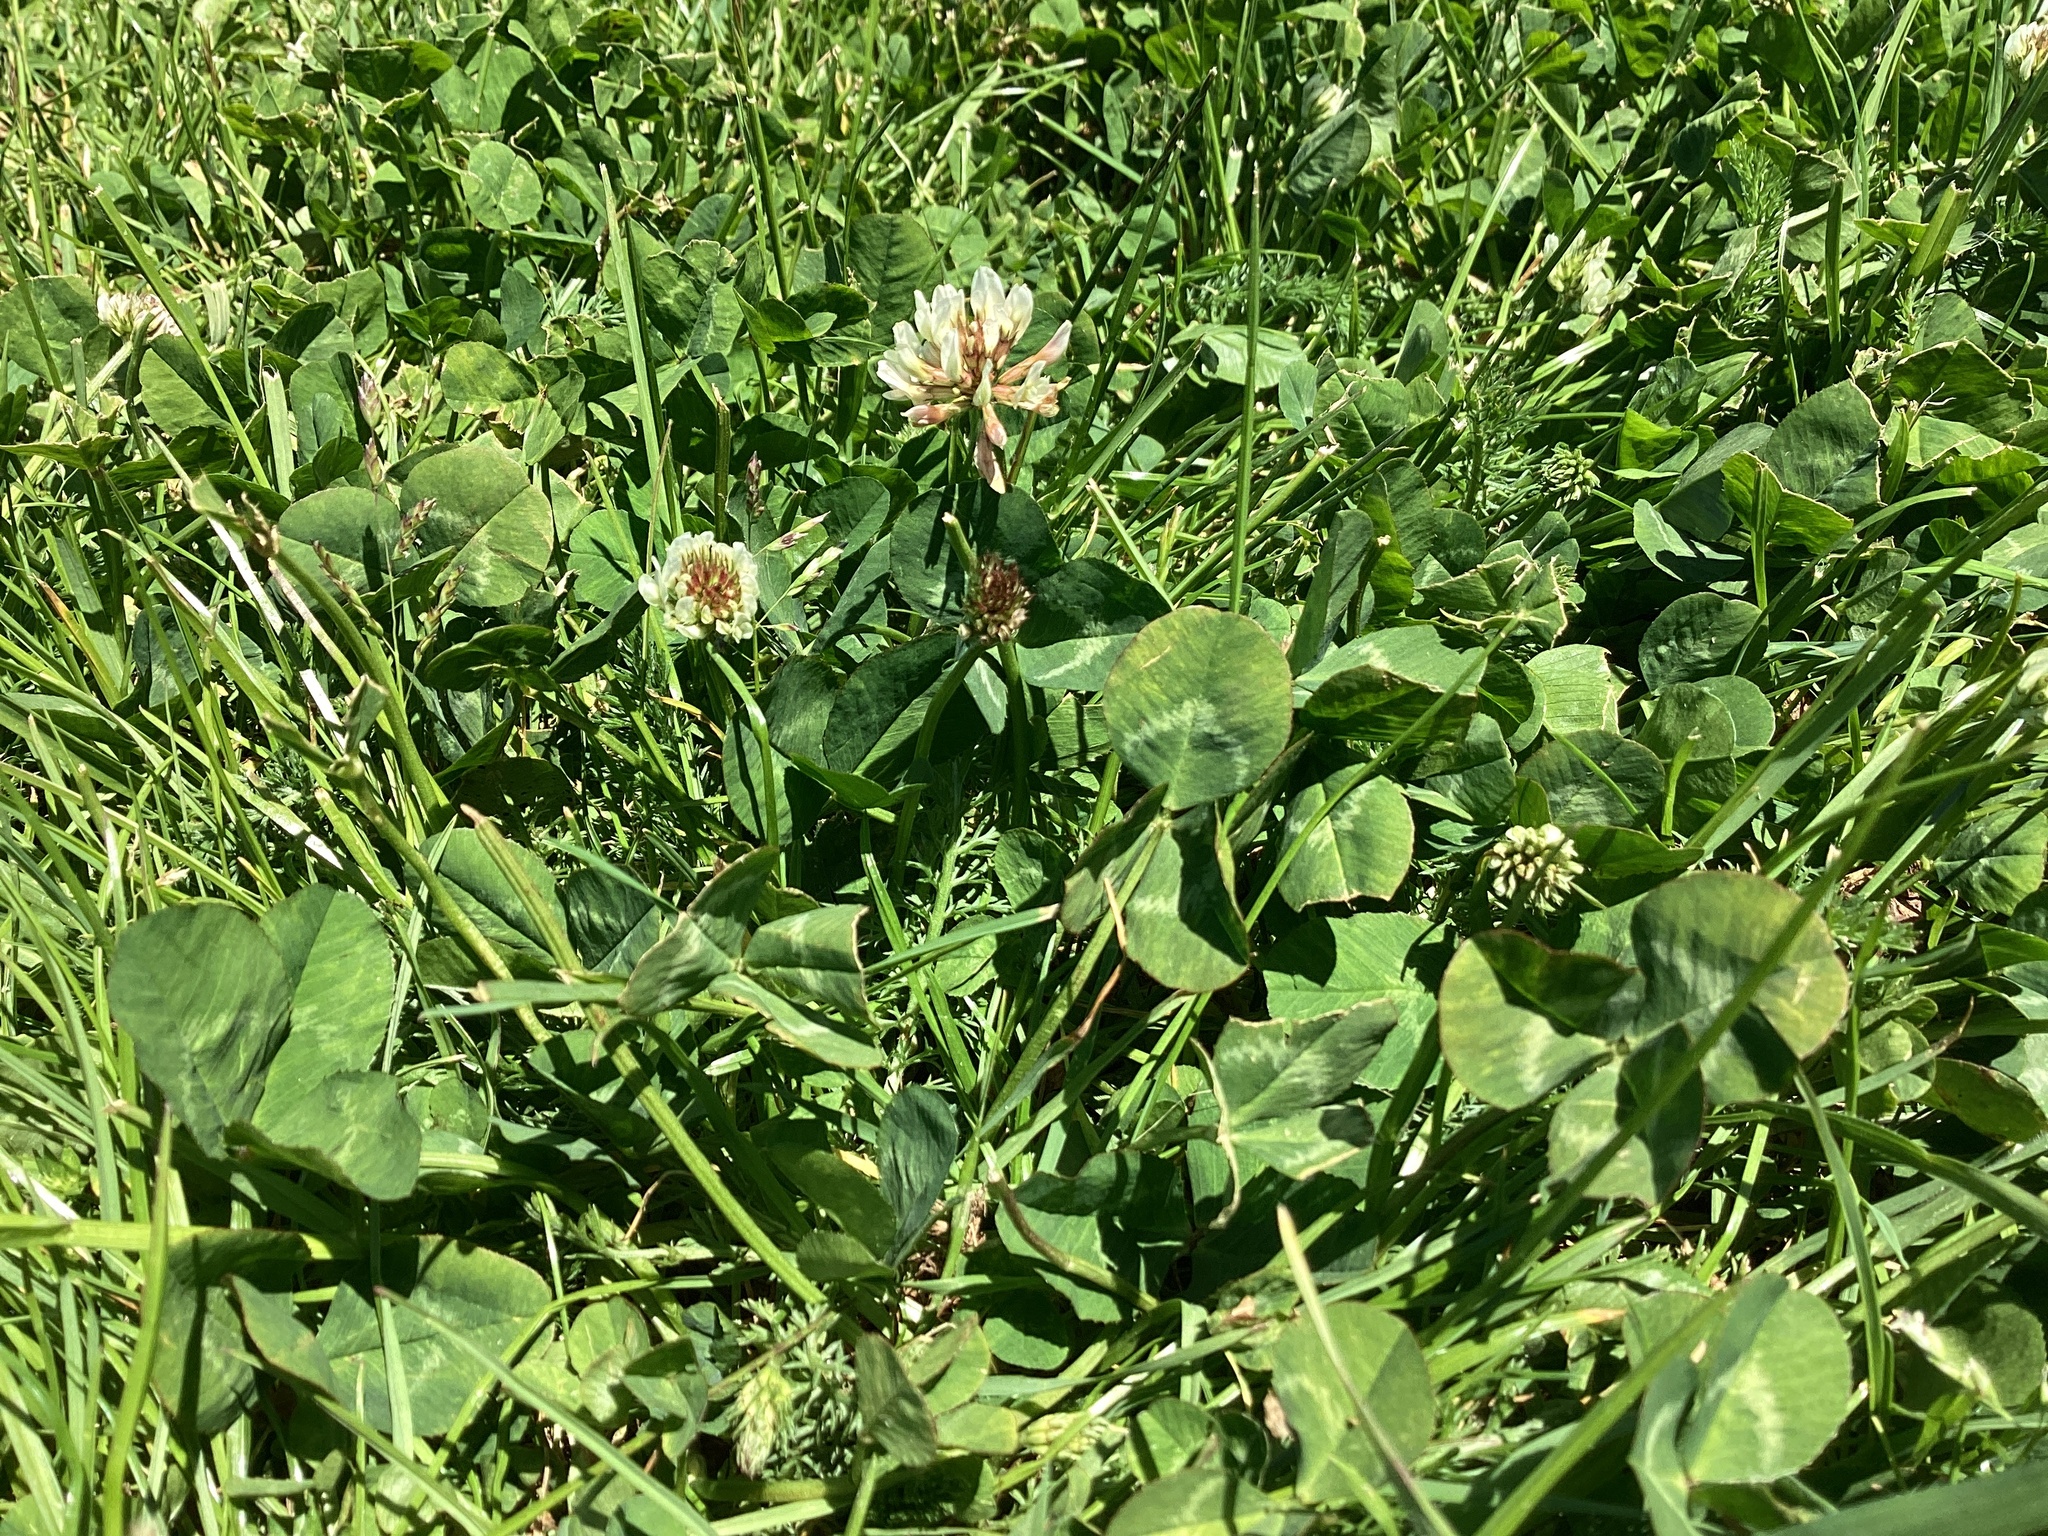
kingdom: Plantae
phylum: Tracheophyta
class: Magnoliopsida
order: Fabales
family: Fabaceae
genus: Trifolium
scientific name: Trifolium repens
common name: White clover
